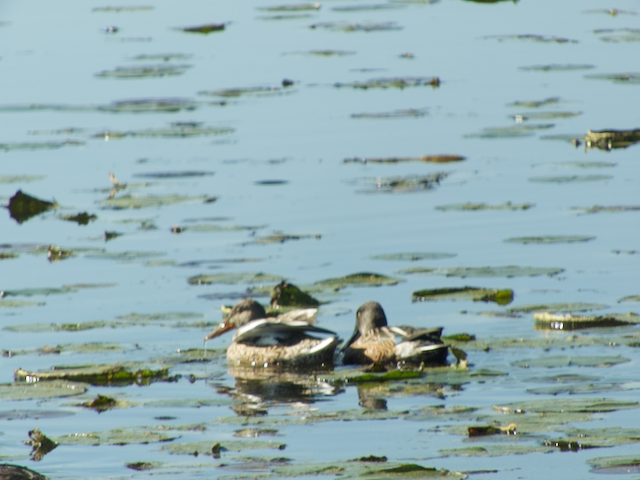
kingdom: Animalia
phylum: Chordata
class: Aves
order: Anseriformes
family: Anatidae
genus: Spatula
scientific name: Spatula clypeata
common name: Northern shoveler
